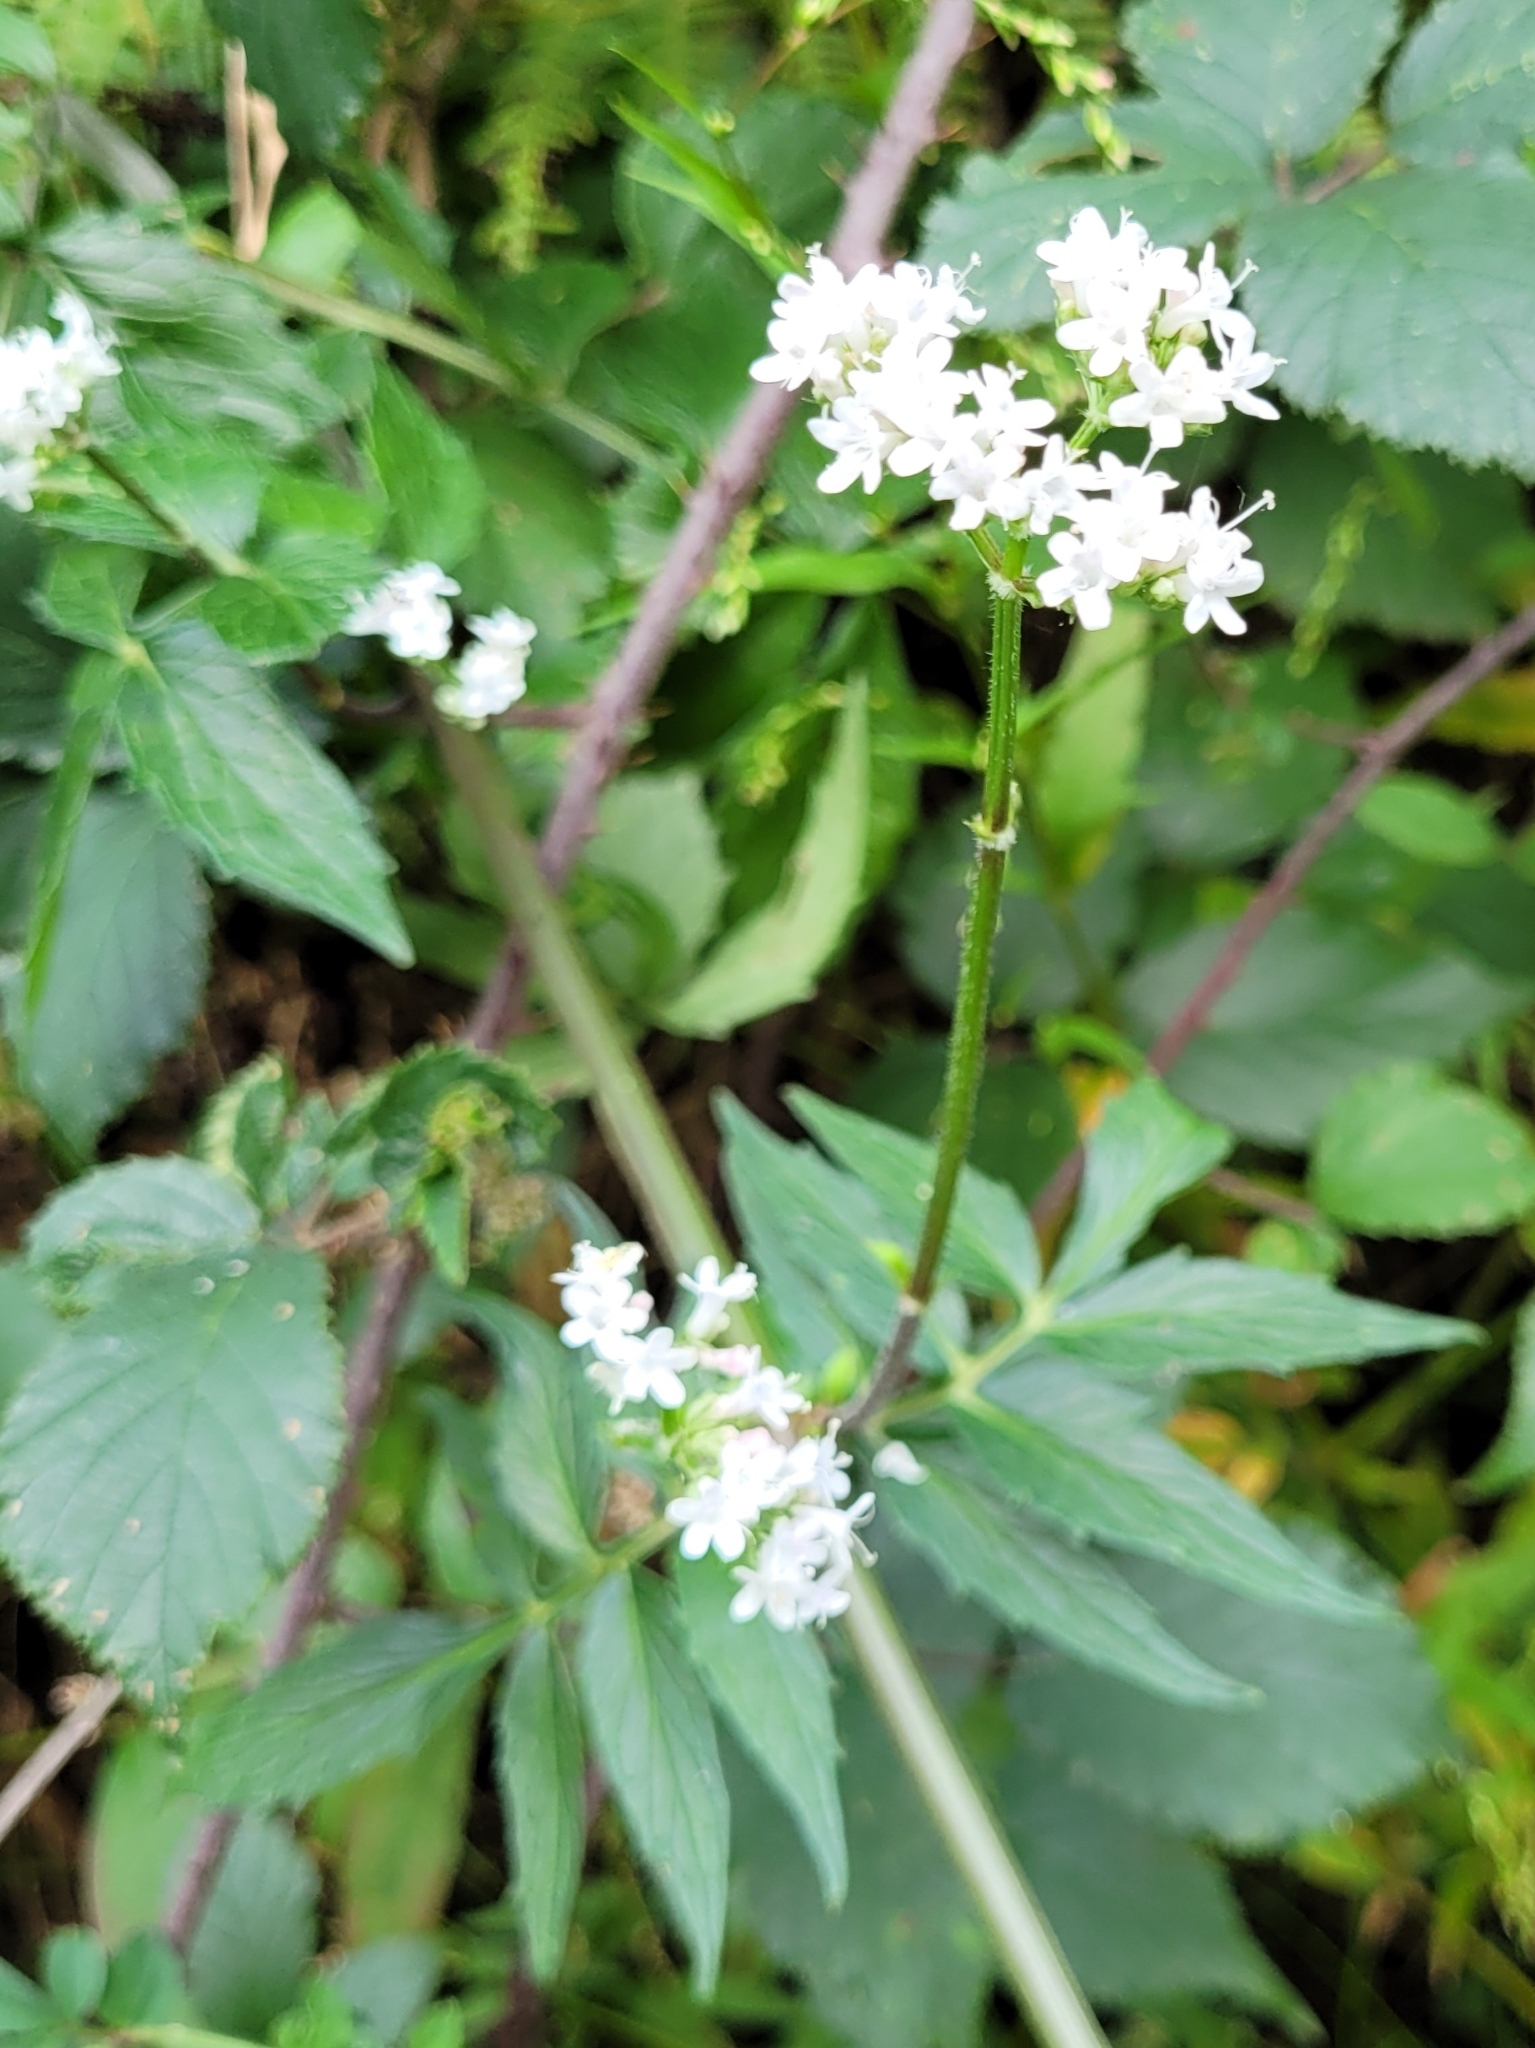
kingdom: Plantae
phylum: Tracheophyta
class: Magnoliopsida
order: Dipsacales
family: Caprifoliaceae
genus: Valeriana
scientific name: Valeriana officinalis
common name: Common valerian
